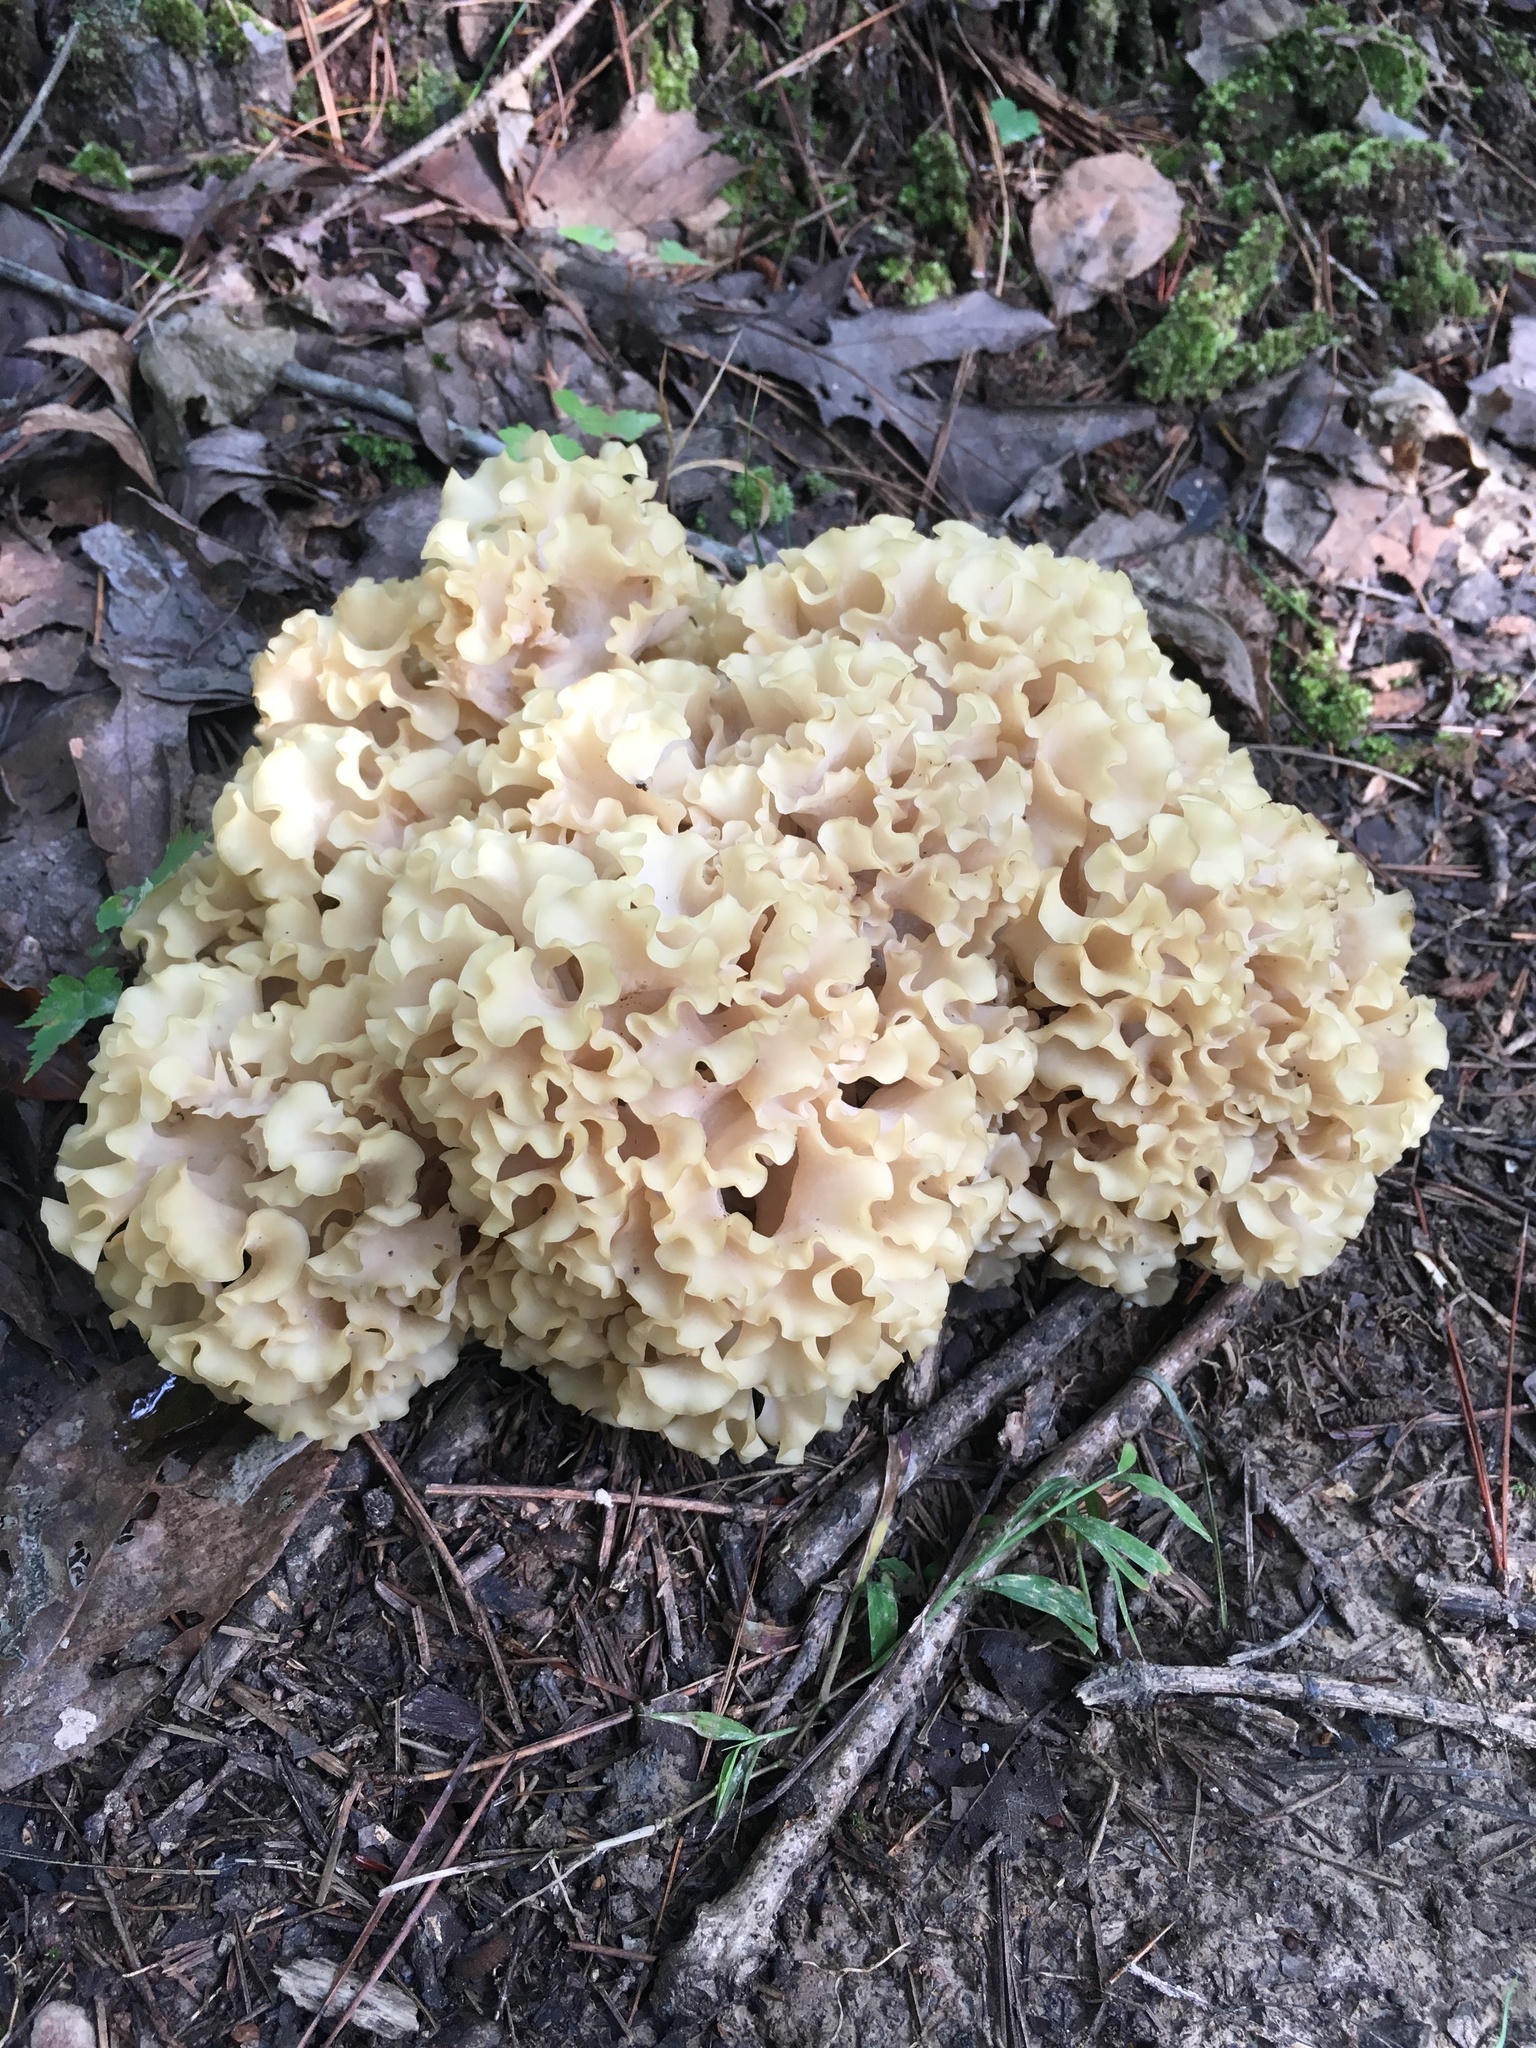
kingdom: Fungi
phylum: Basidiomycota
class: Agaricomycetes
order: Polyporales
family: Sparassidaceae
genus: Sparassis
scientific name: Sparassis americana
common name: American cauliflower mushroom
